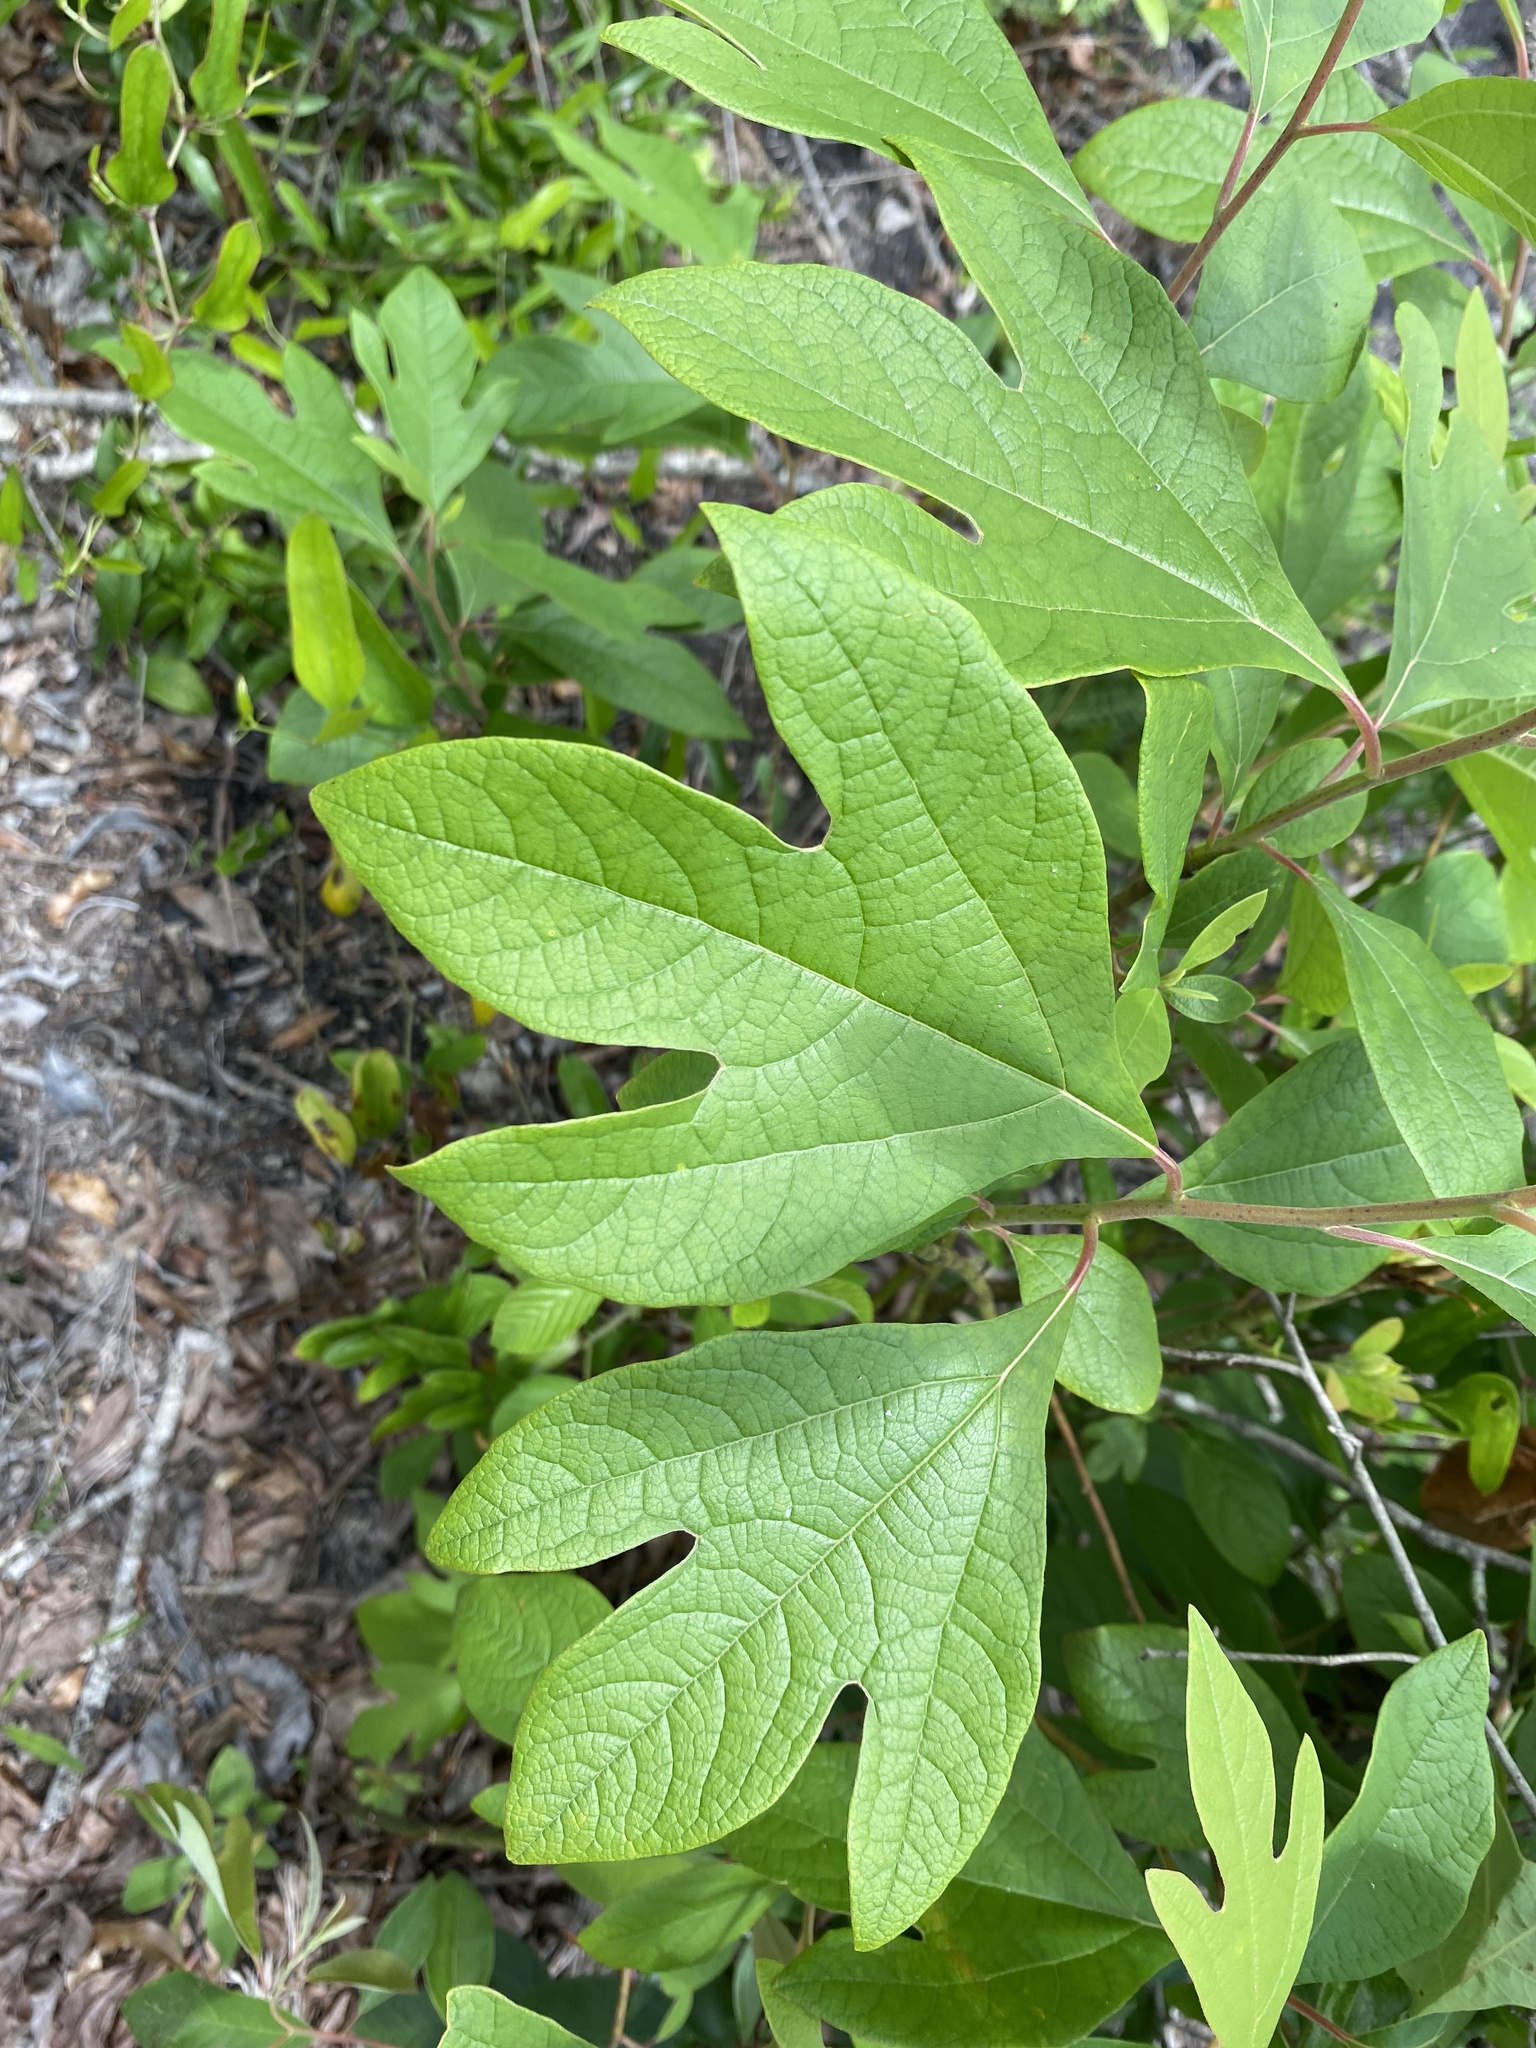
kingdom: Plantae
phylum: Tracheophyta
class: Magnoliopsida
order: Laurales
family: Lauraceae
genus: Sassafras
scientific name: Sassafras albidum
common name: Sassafras
